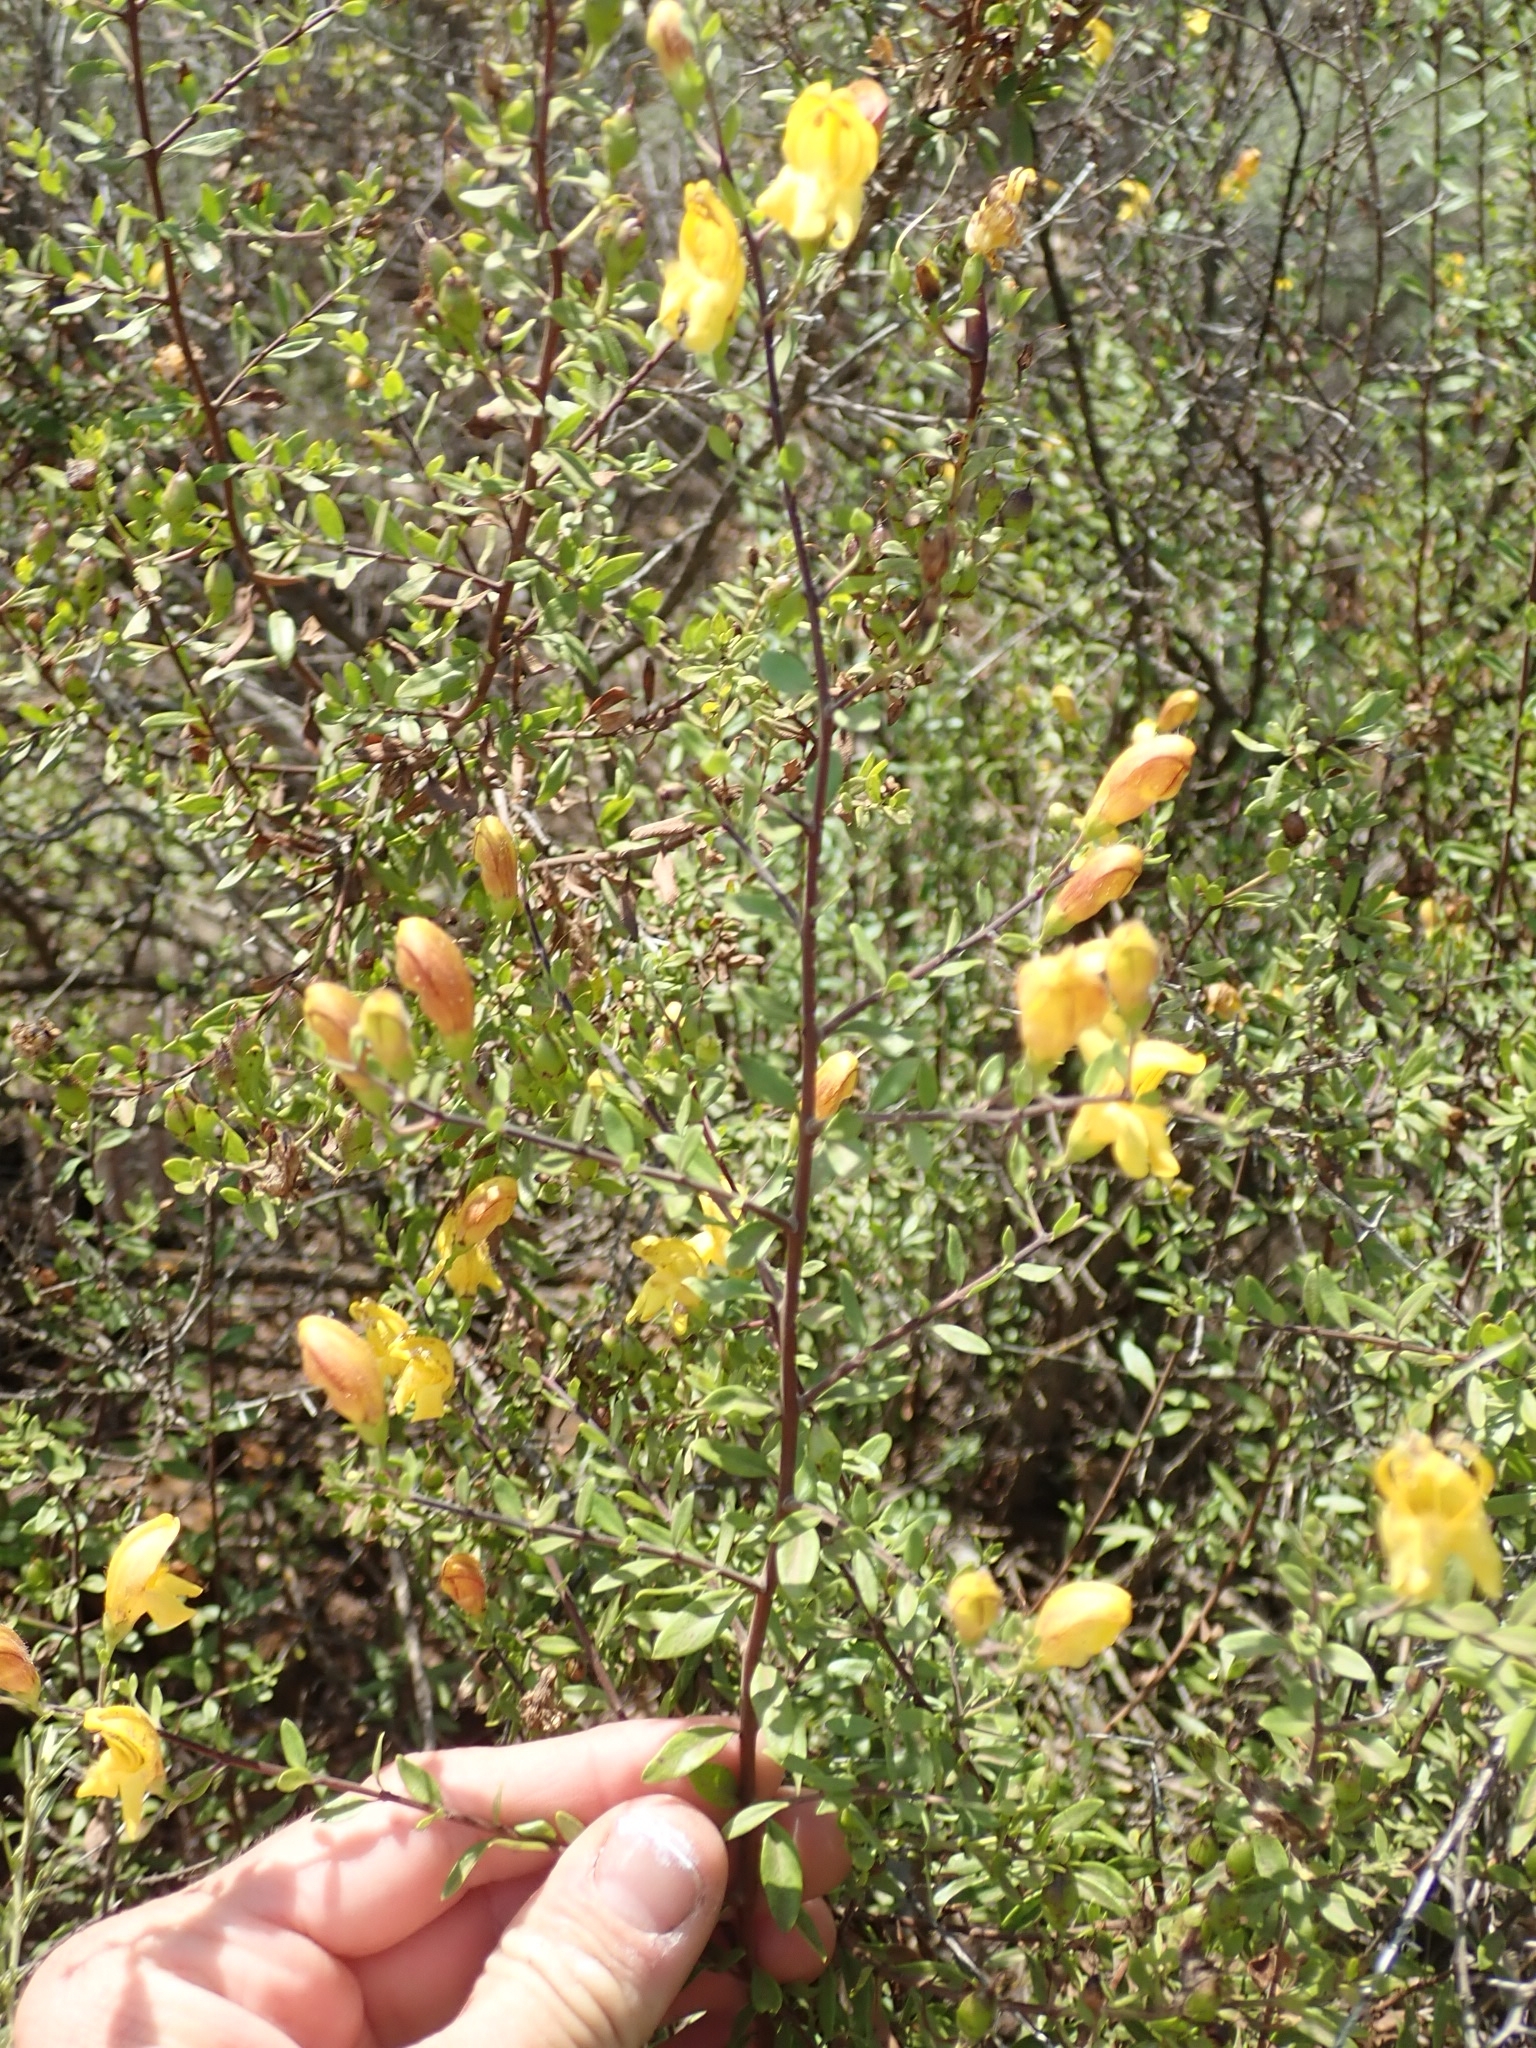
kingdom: Plantae
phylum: Tracheophyta
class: Magnoliopsida
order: Lamiales
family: Plantaginaceae
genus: Keckiella
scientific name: Keckiella antirrhinoides
